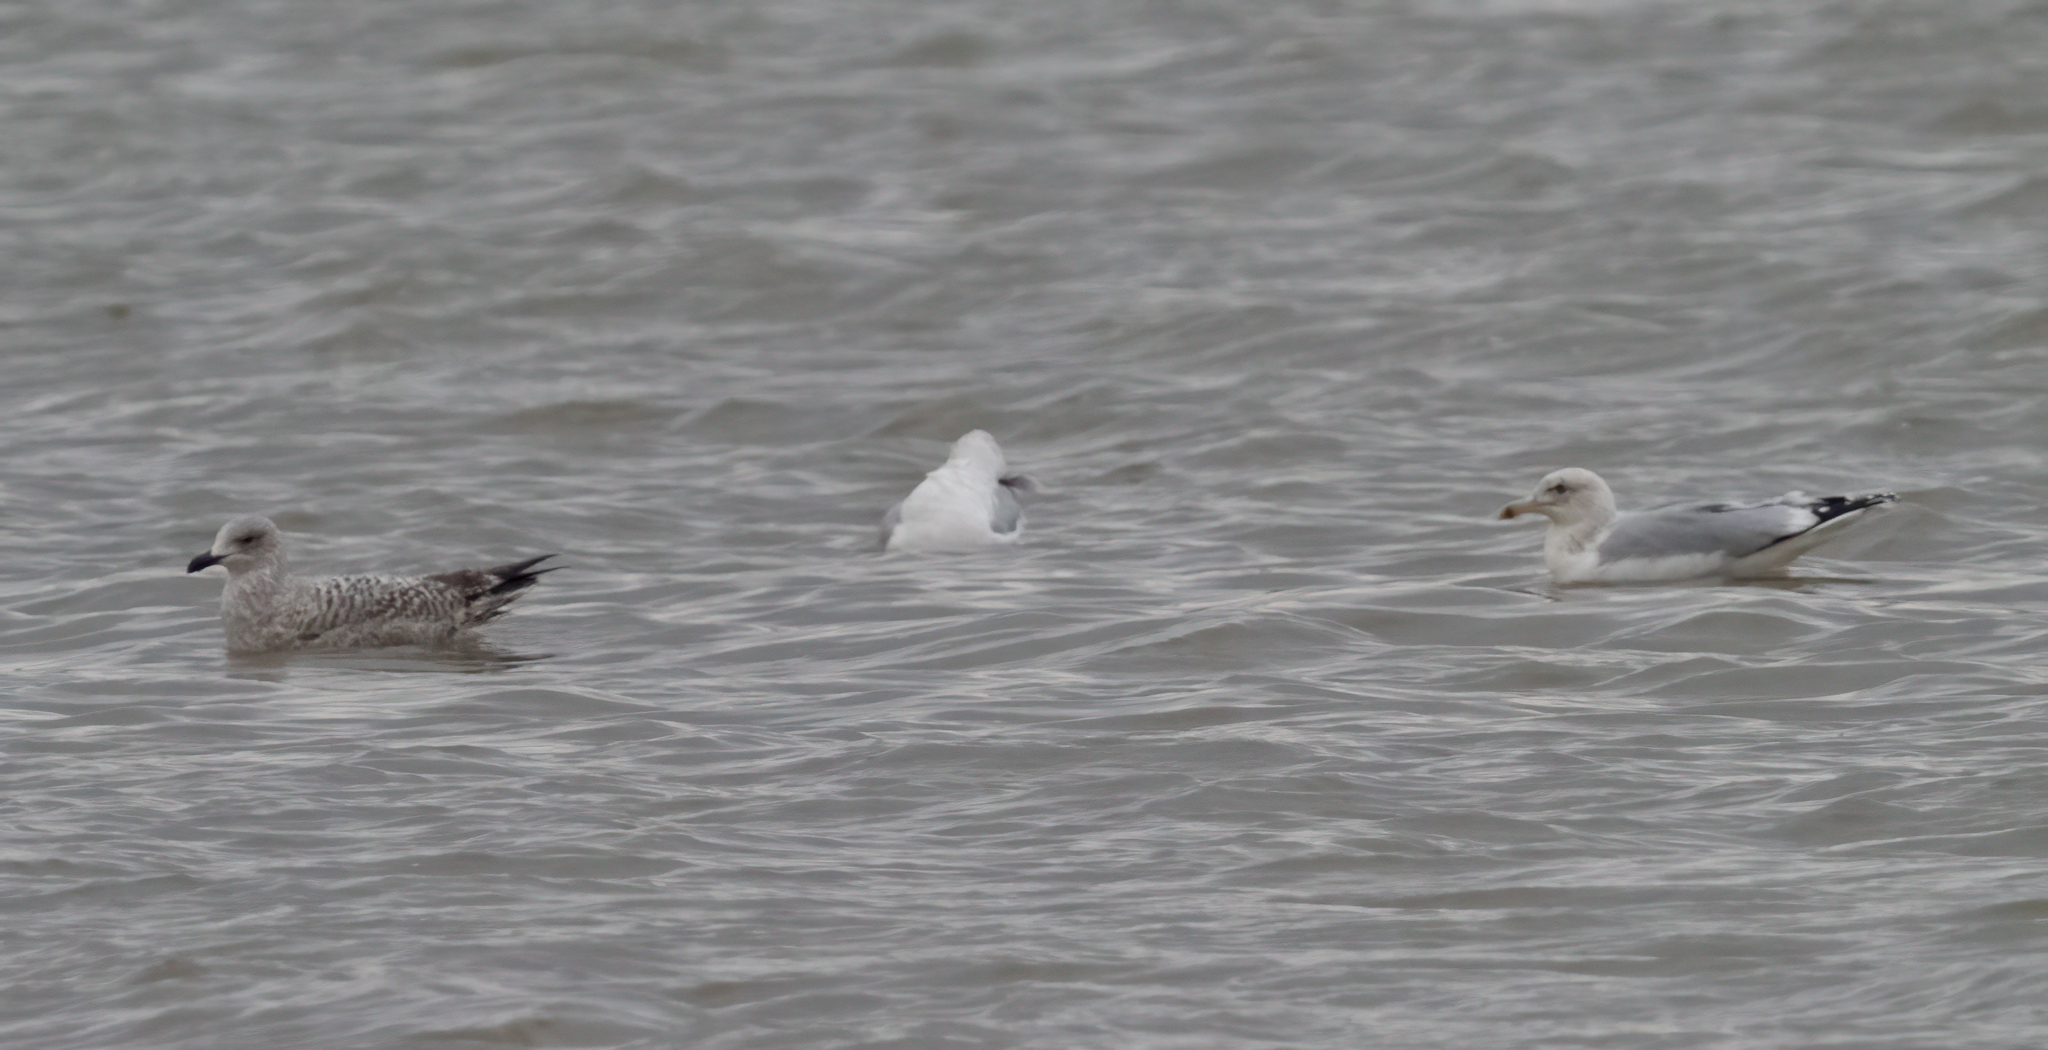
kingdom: Animalia
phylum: Chordata
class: Aves
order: Charadriiformes
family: Laridae
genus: Larus
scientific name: Larus argentatus
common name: Herring gull
